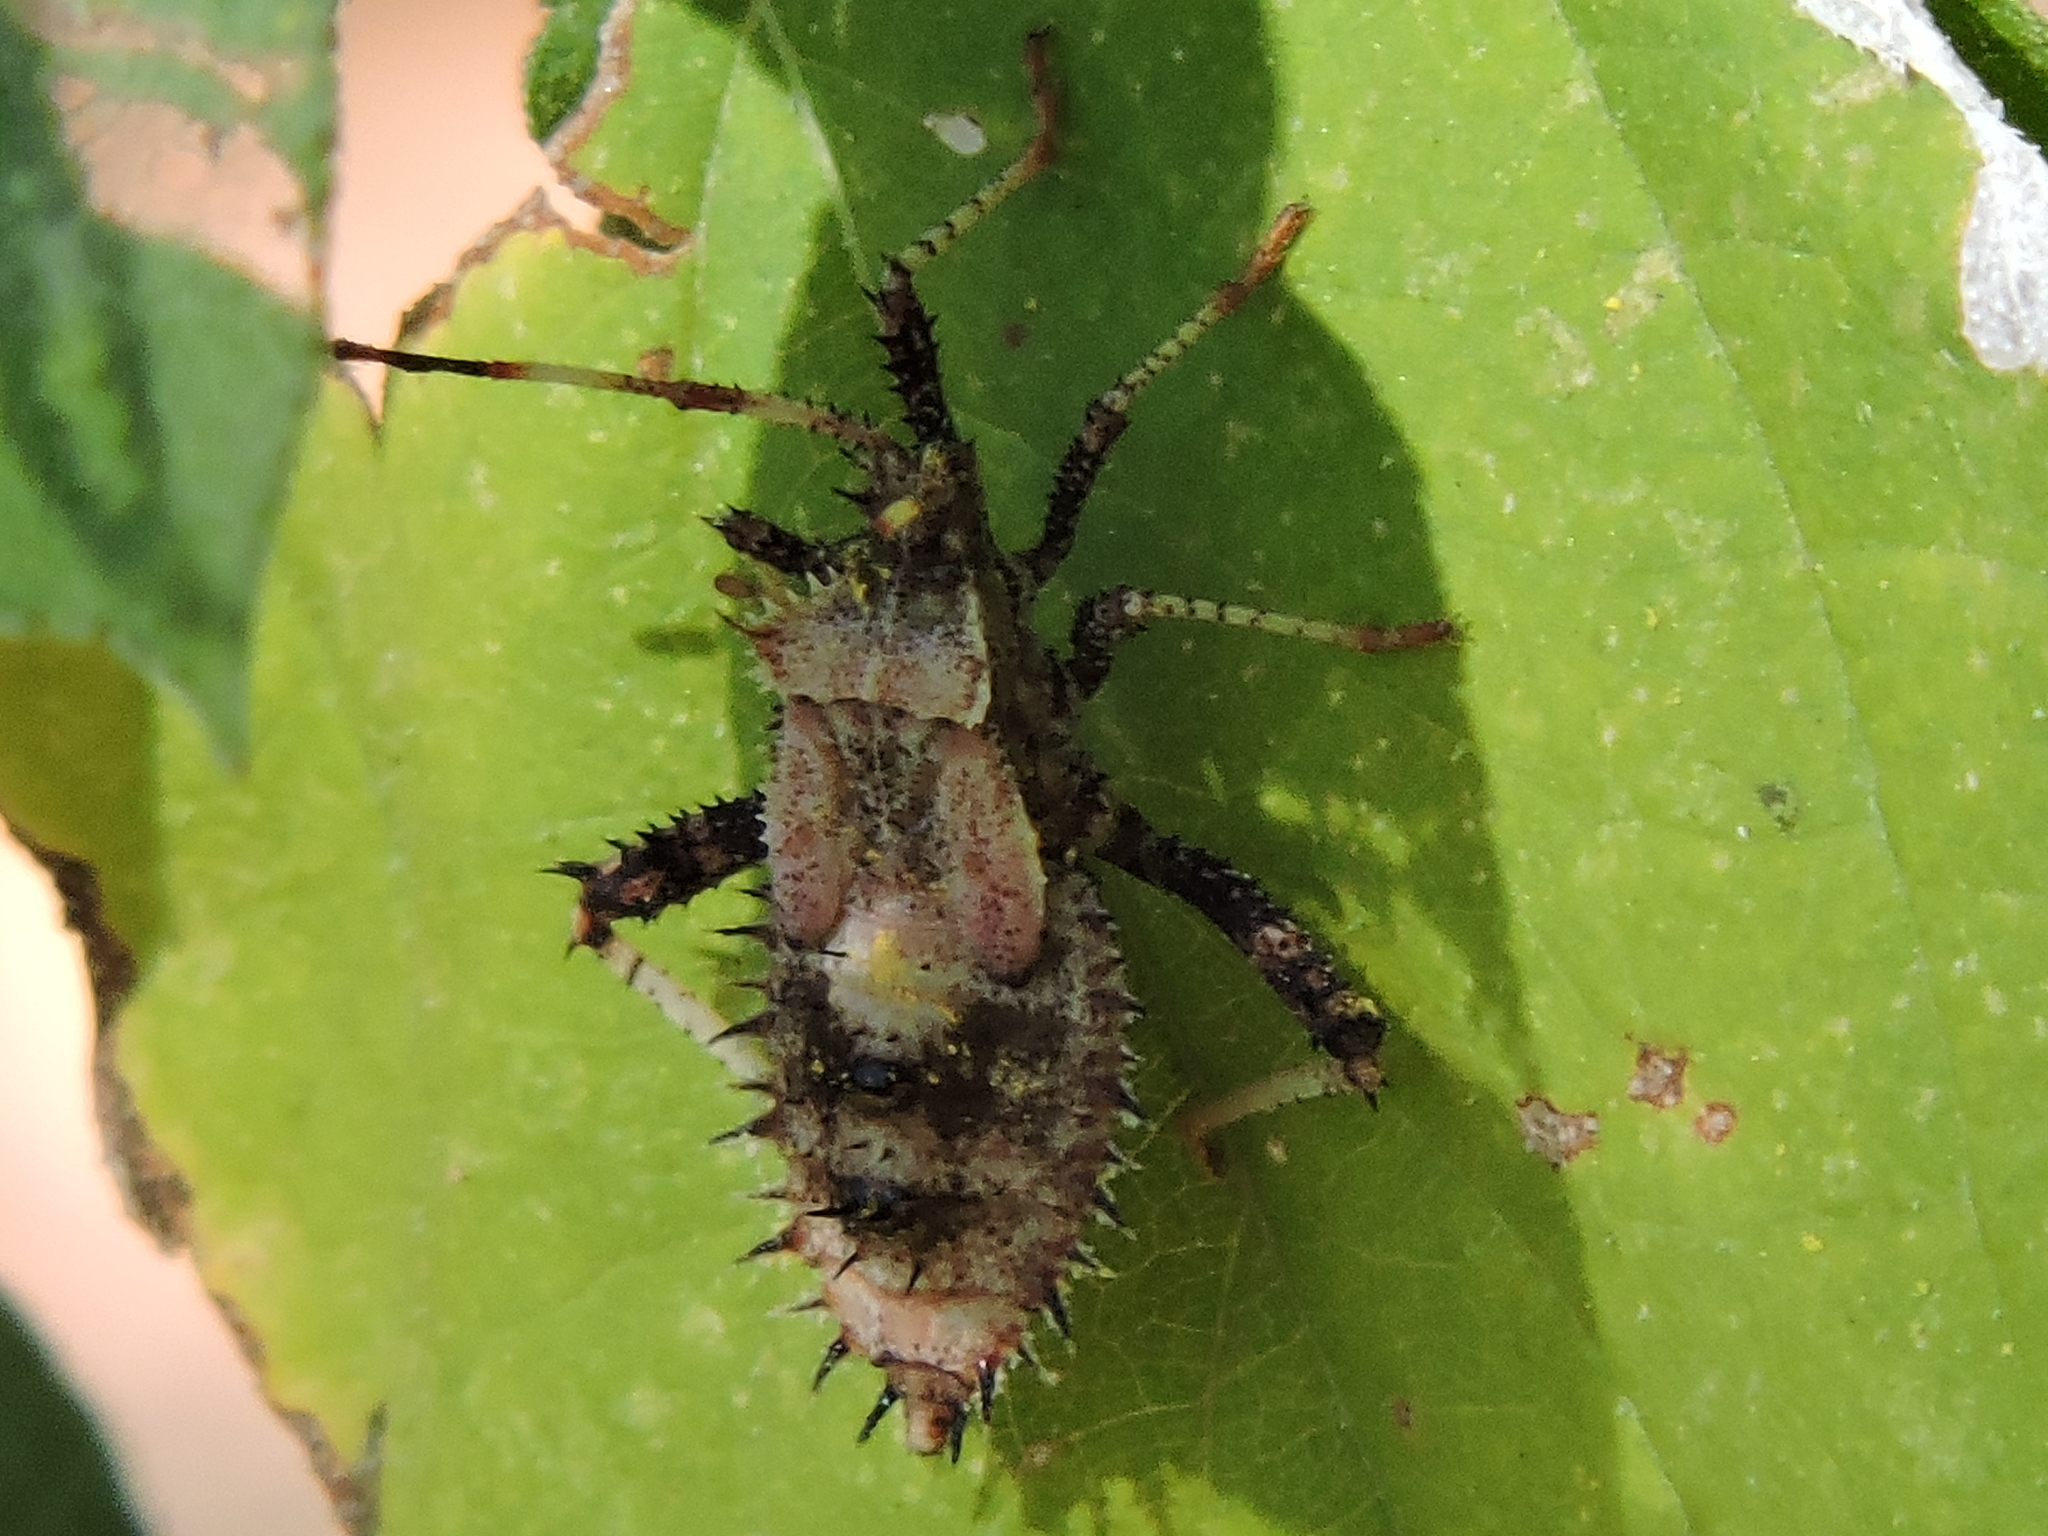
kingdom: Animalia
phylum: Arthropoda
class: Insecta
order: Hemiptera
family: Coreidae
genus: Euthochtha
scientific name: Euthochtha galeator
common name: Helmeted squash bug
